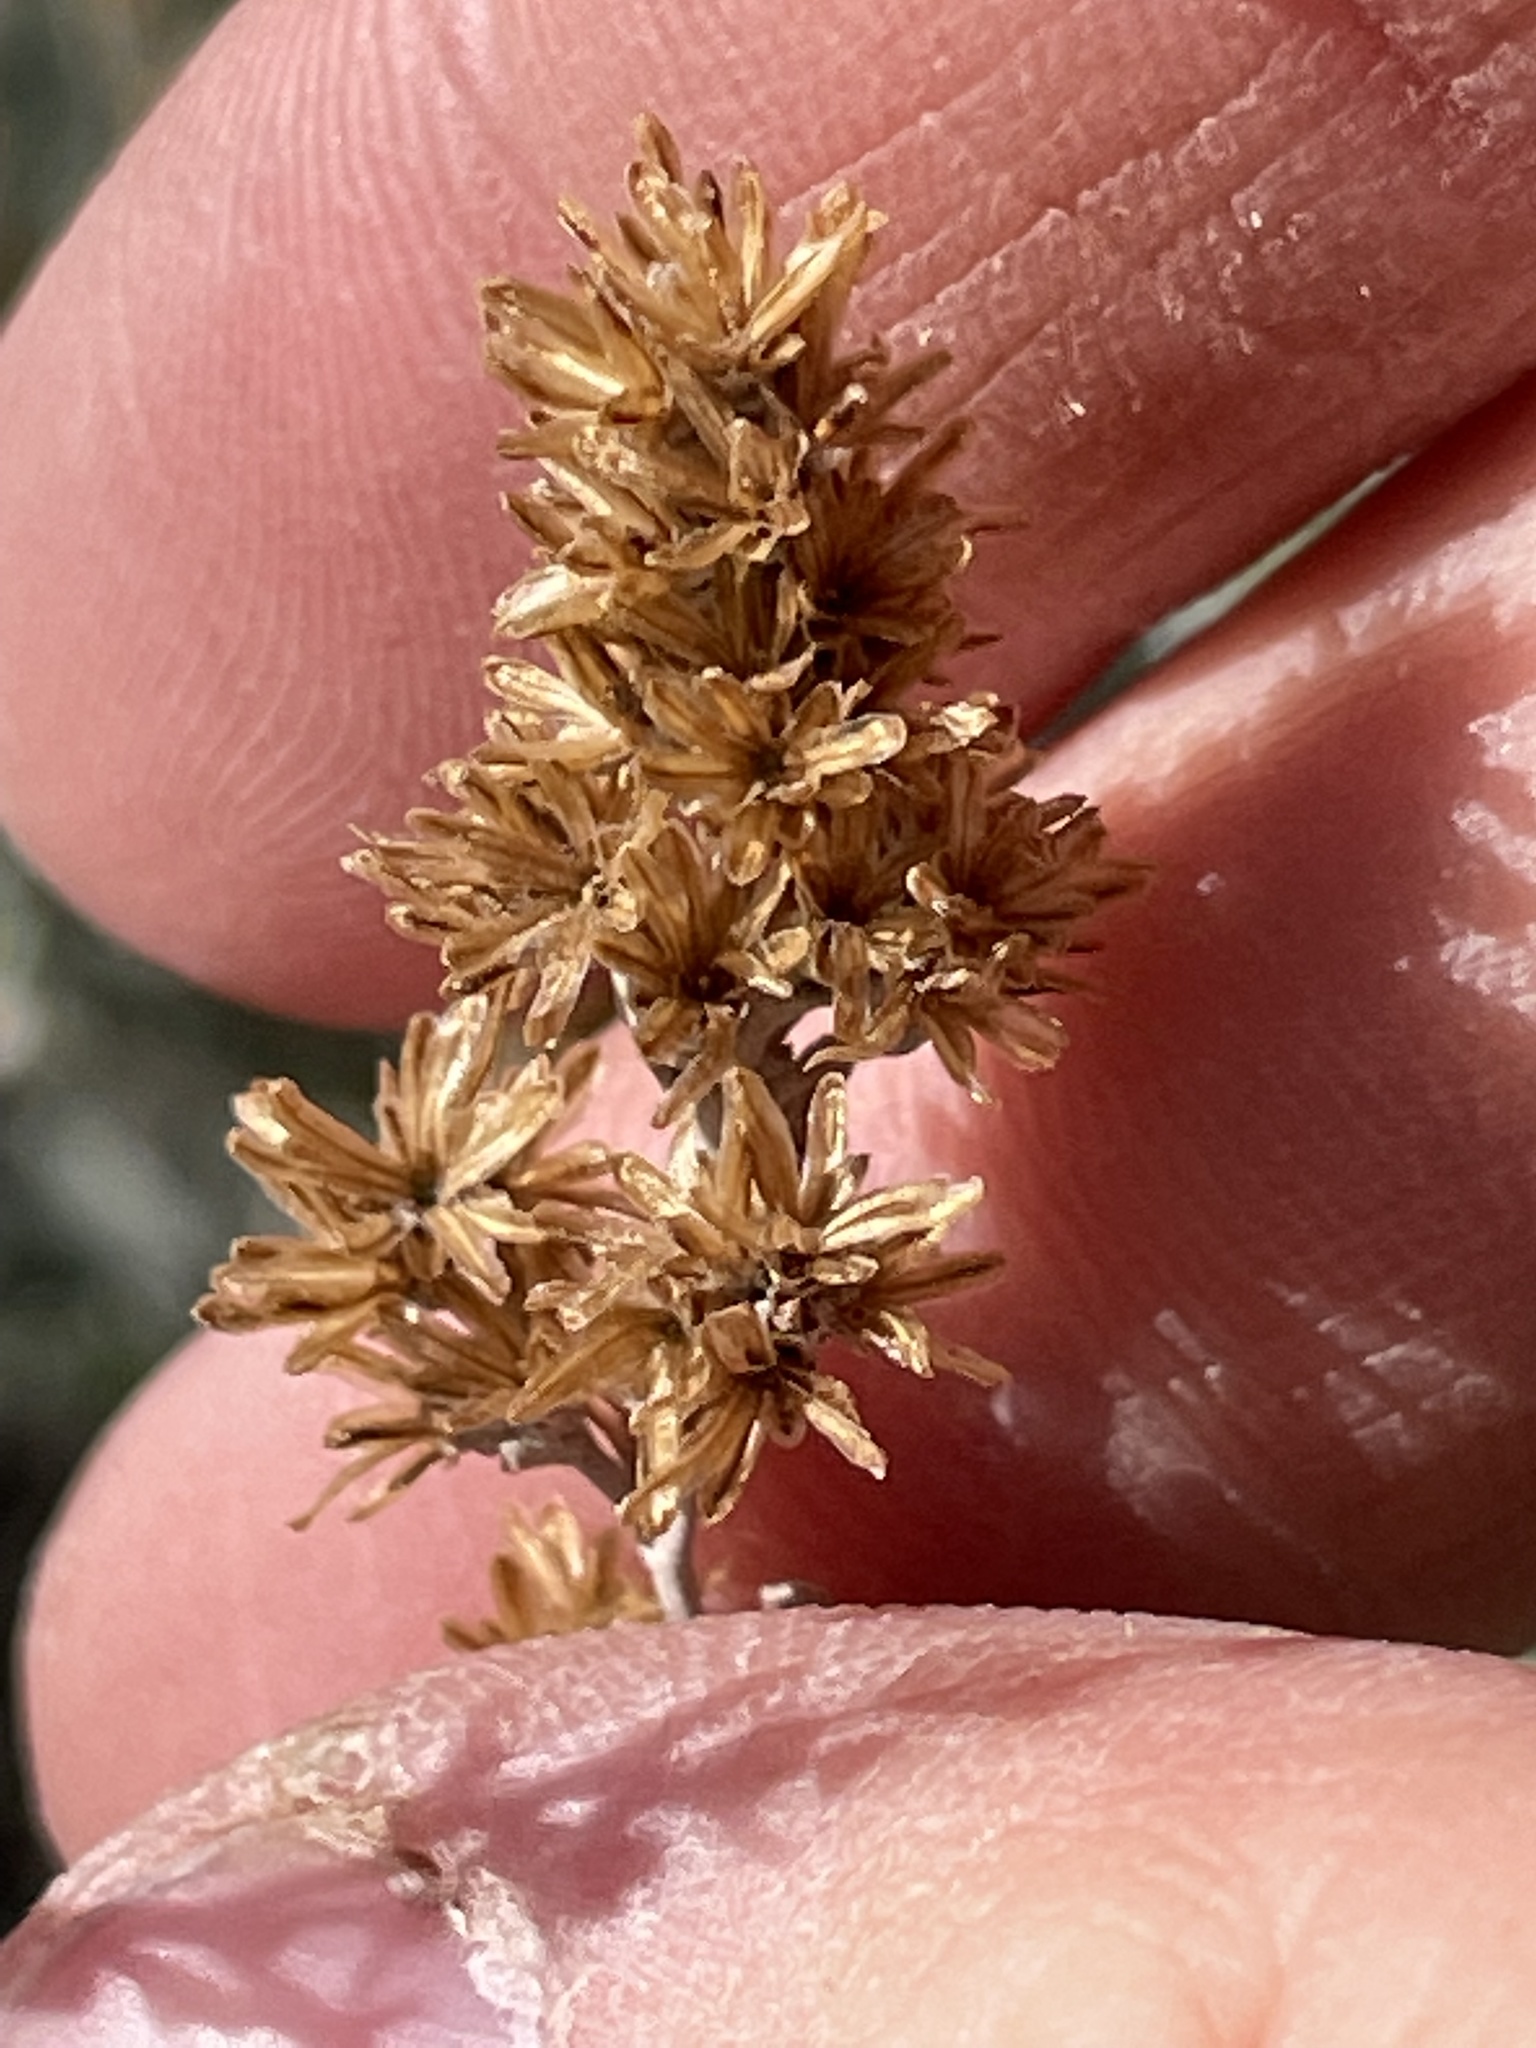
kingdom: Plantae
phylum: Tracheophyta
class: Magnoliopsida
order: Asterales
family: Asteraceae
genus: Artemisia
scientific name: Artemisia tridentata
